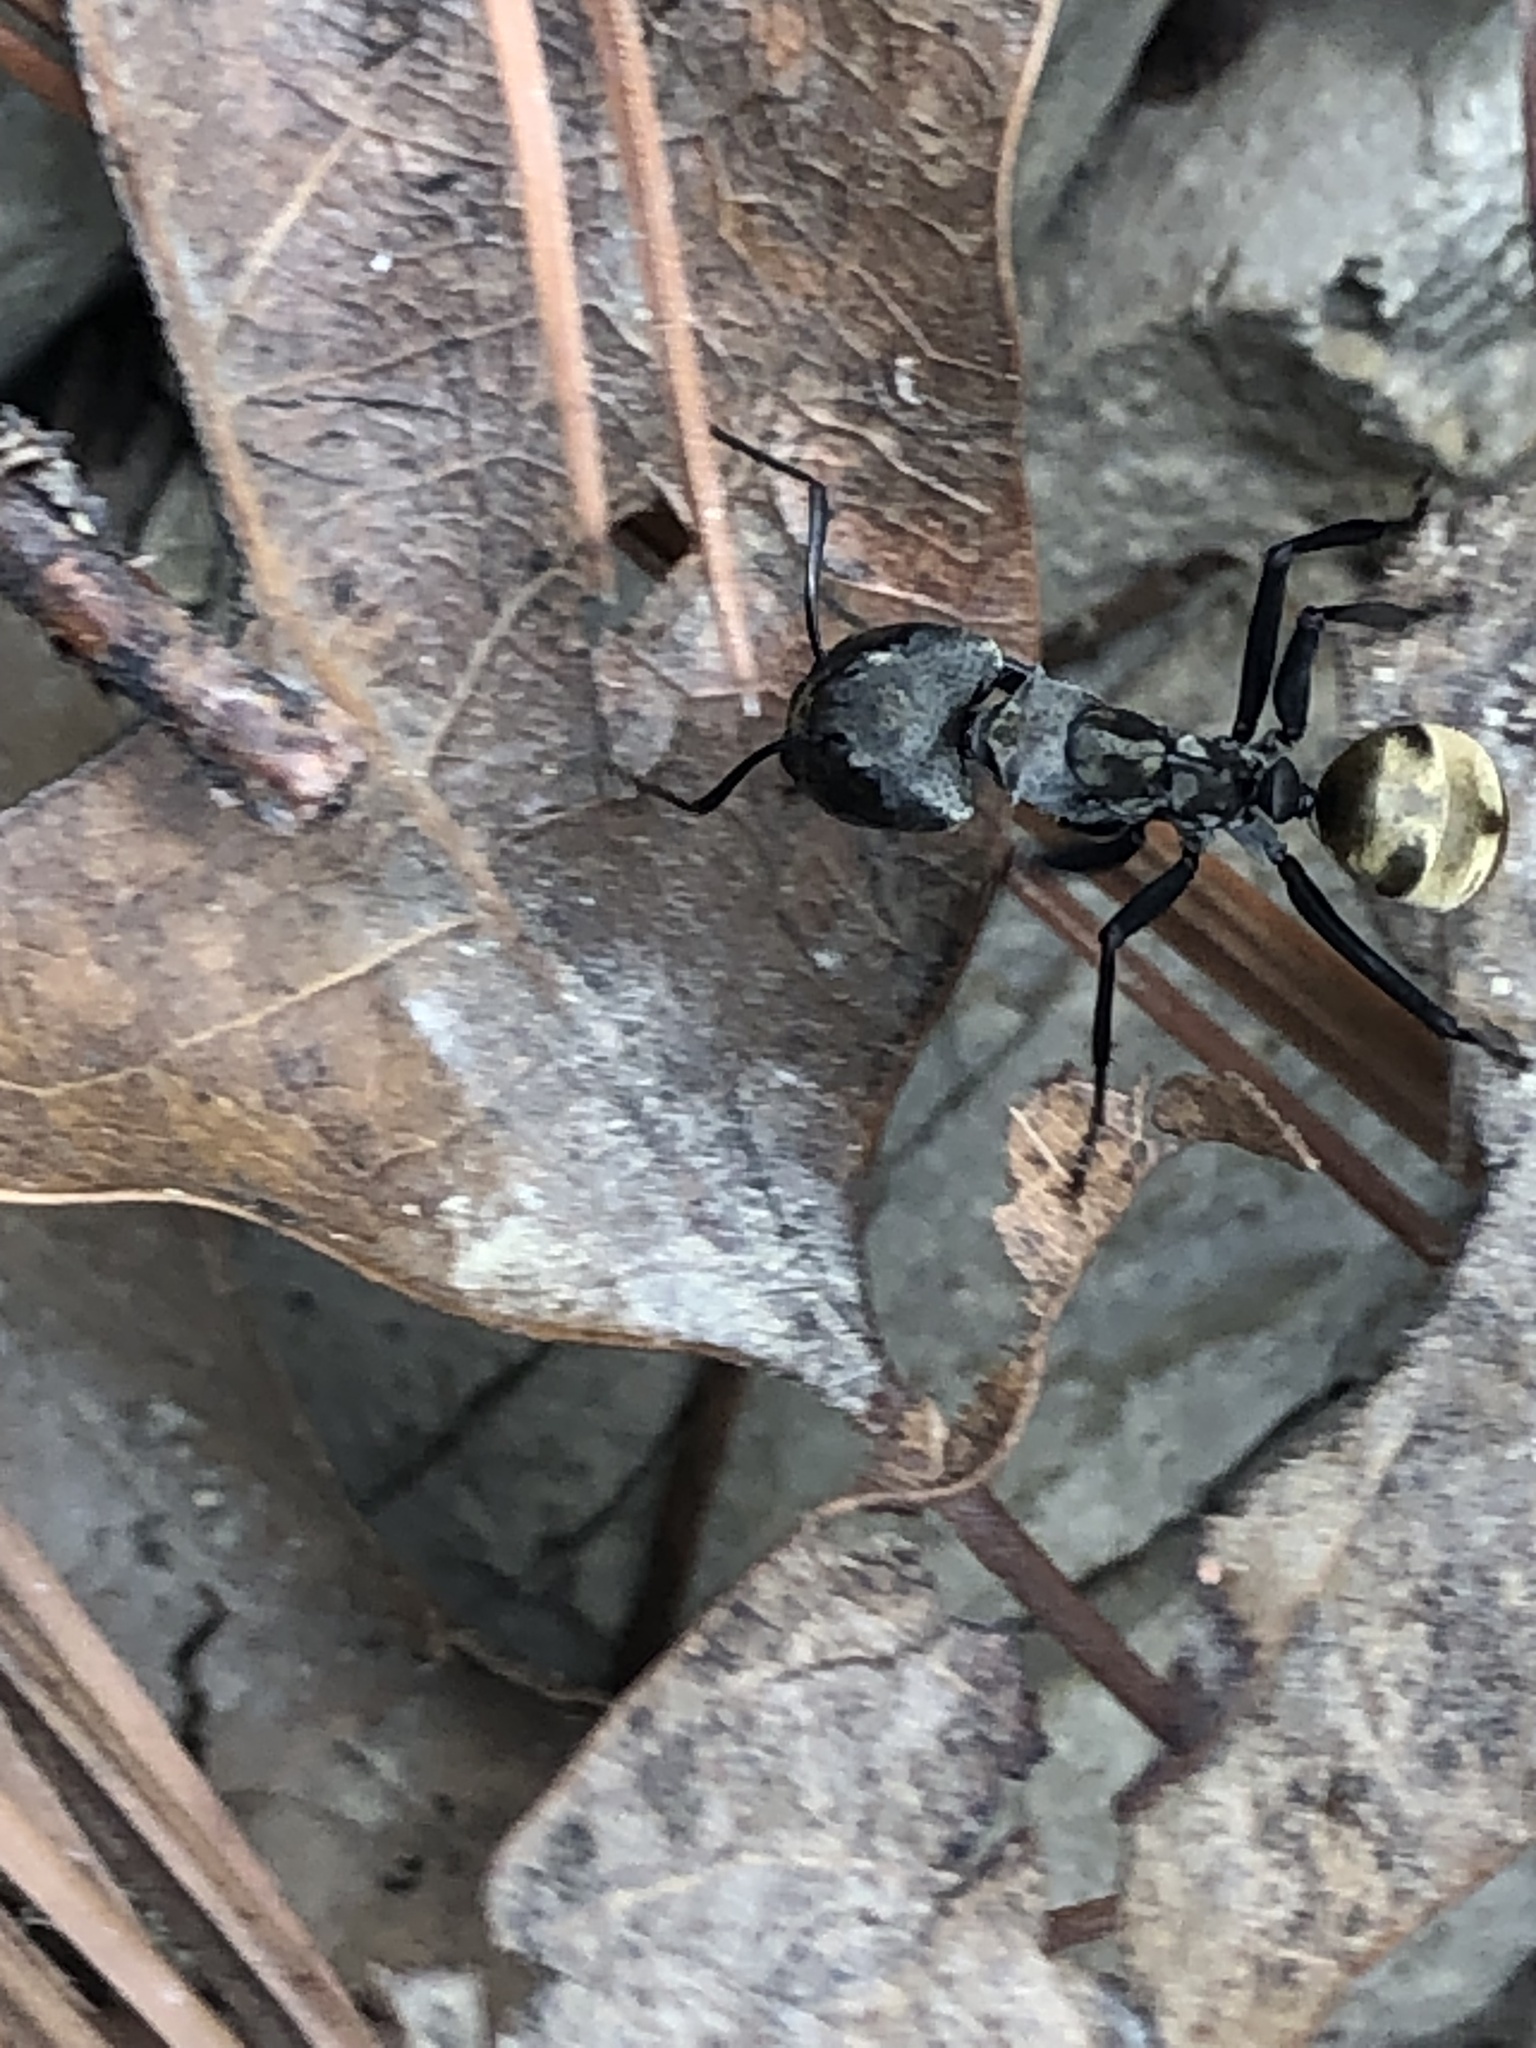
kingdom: Animalia
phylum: Arthropoda
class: Insecta
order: Hymenoptera
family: Formicidae
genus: Camponotus
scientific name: Camponotus sericeiventris
